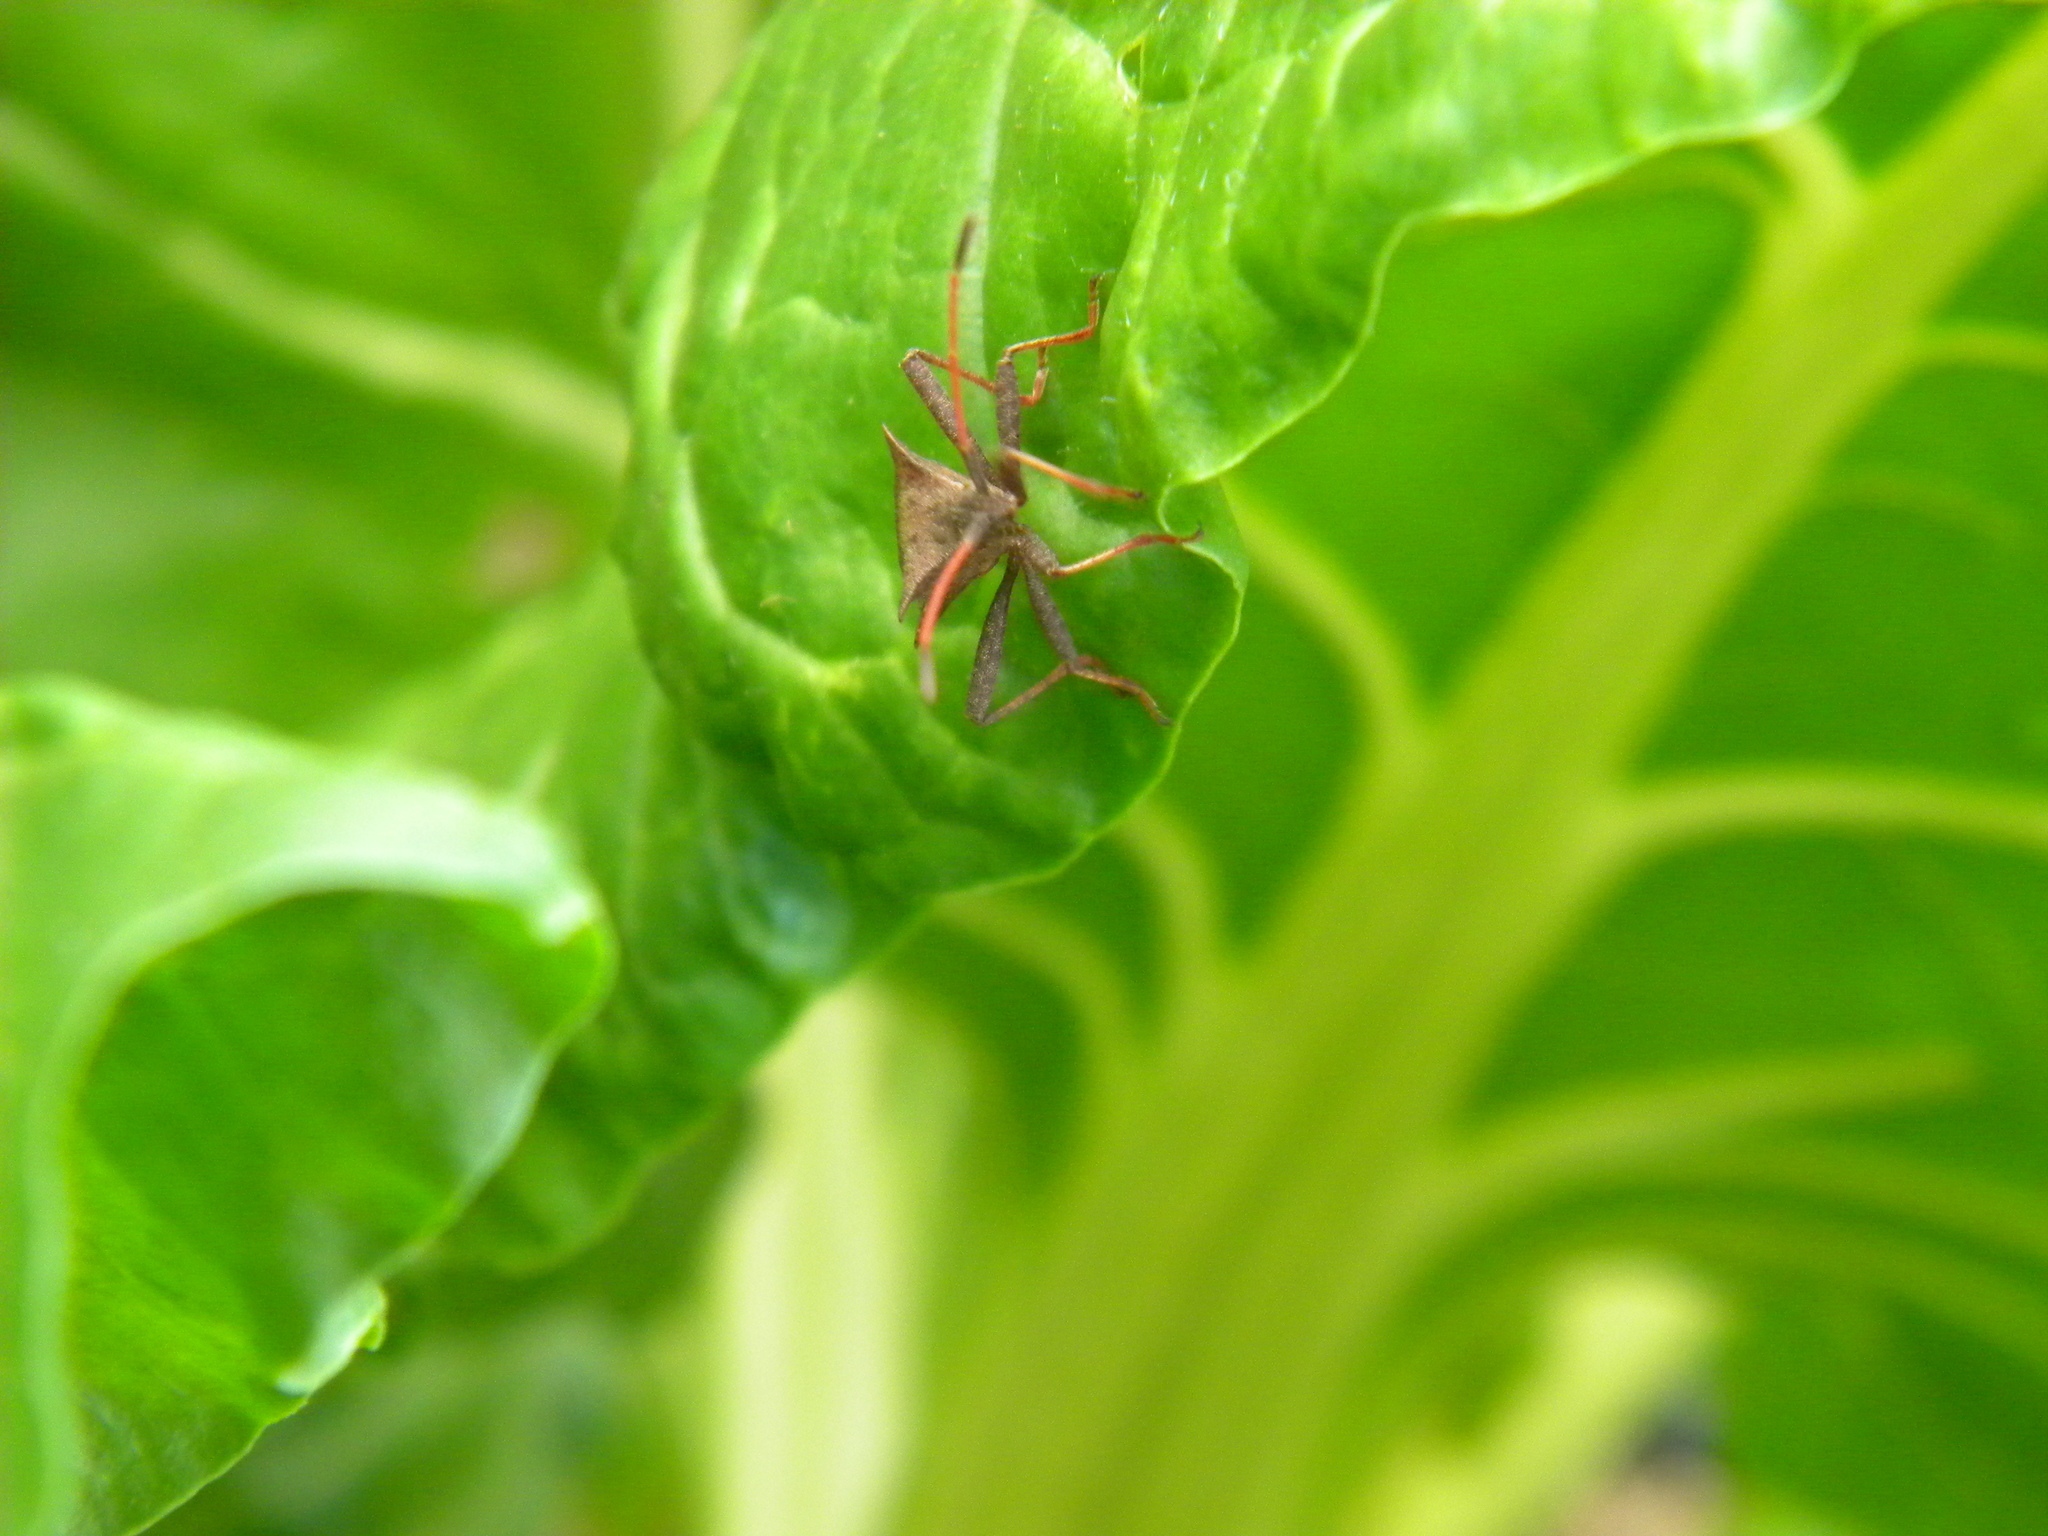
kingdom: Animalia
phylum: Arthropoda
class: Insecta
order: Hemiptera
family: Coreidae
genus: Coreus
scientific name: Coreus marginatus
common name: Dock bug
